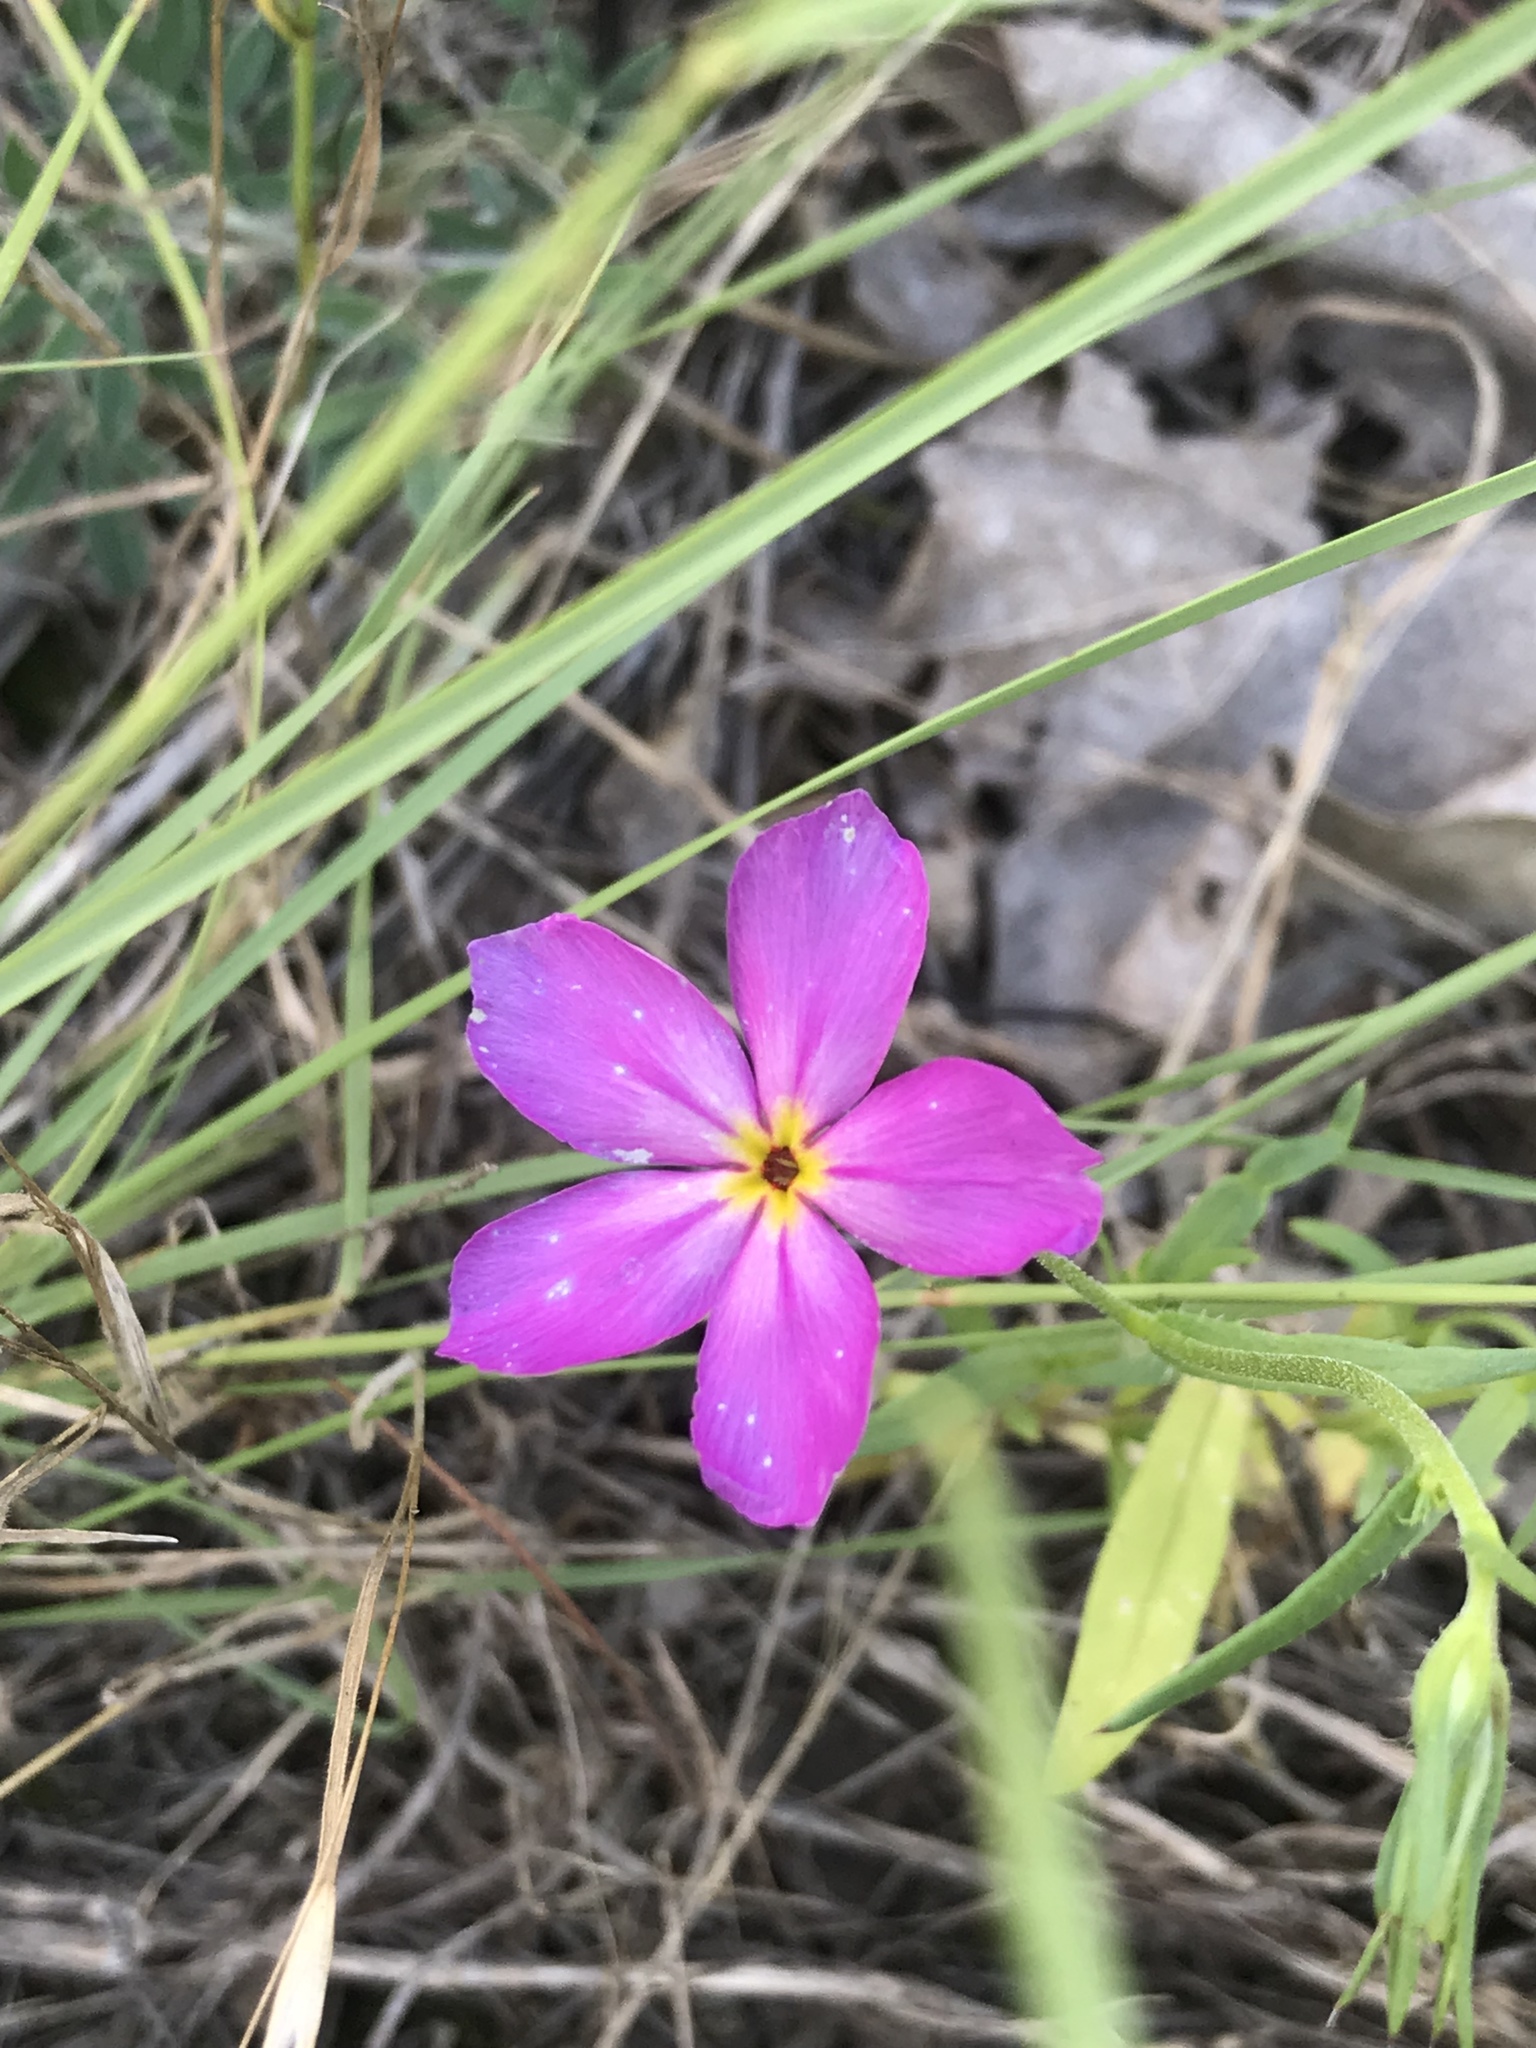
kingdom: Plantae
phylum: Tracheophyta
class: Magnoliopsida
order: Ericales
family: Polemoniaceae
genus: Phlox
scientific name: Phlox roemeriana
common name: Roemer's phlox
